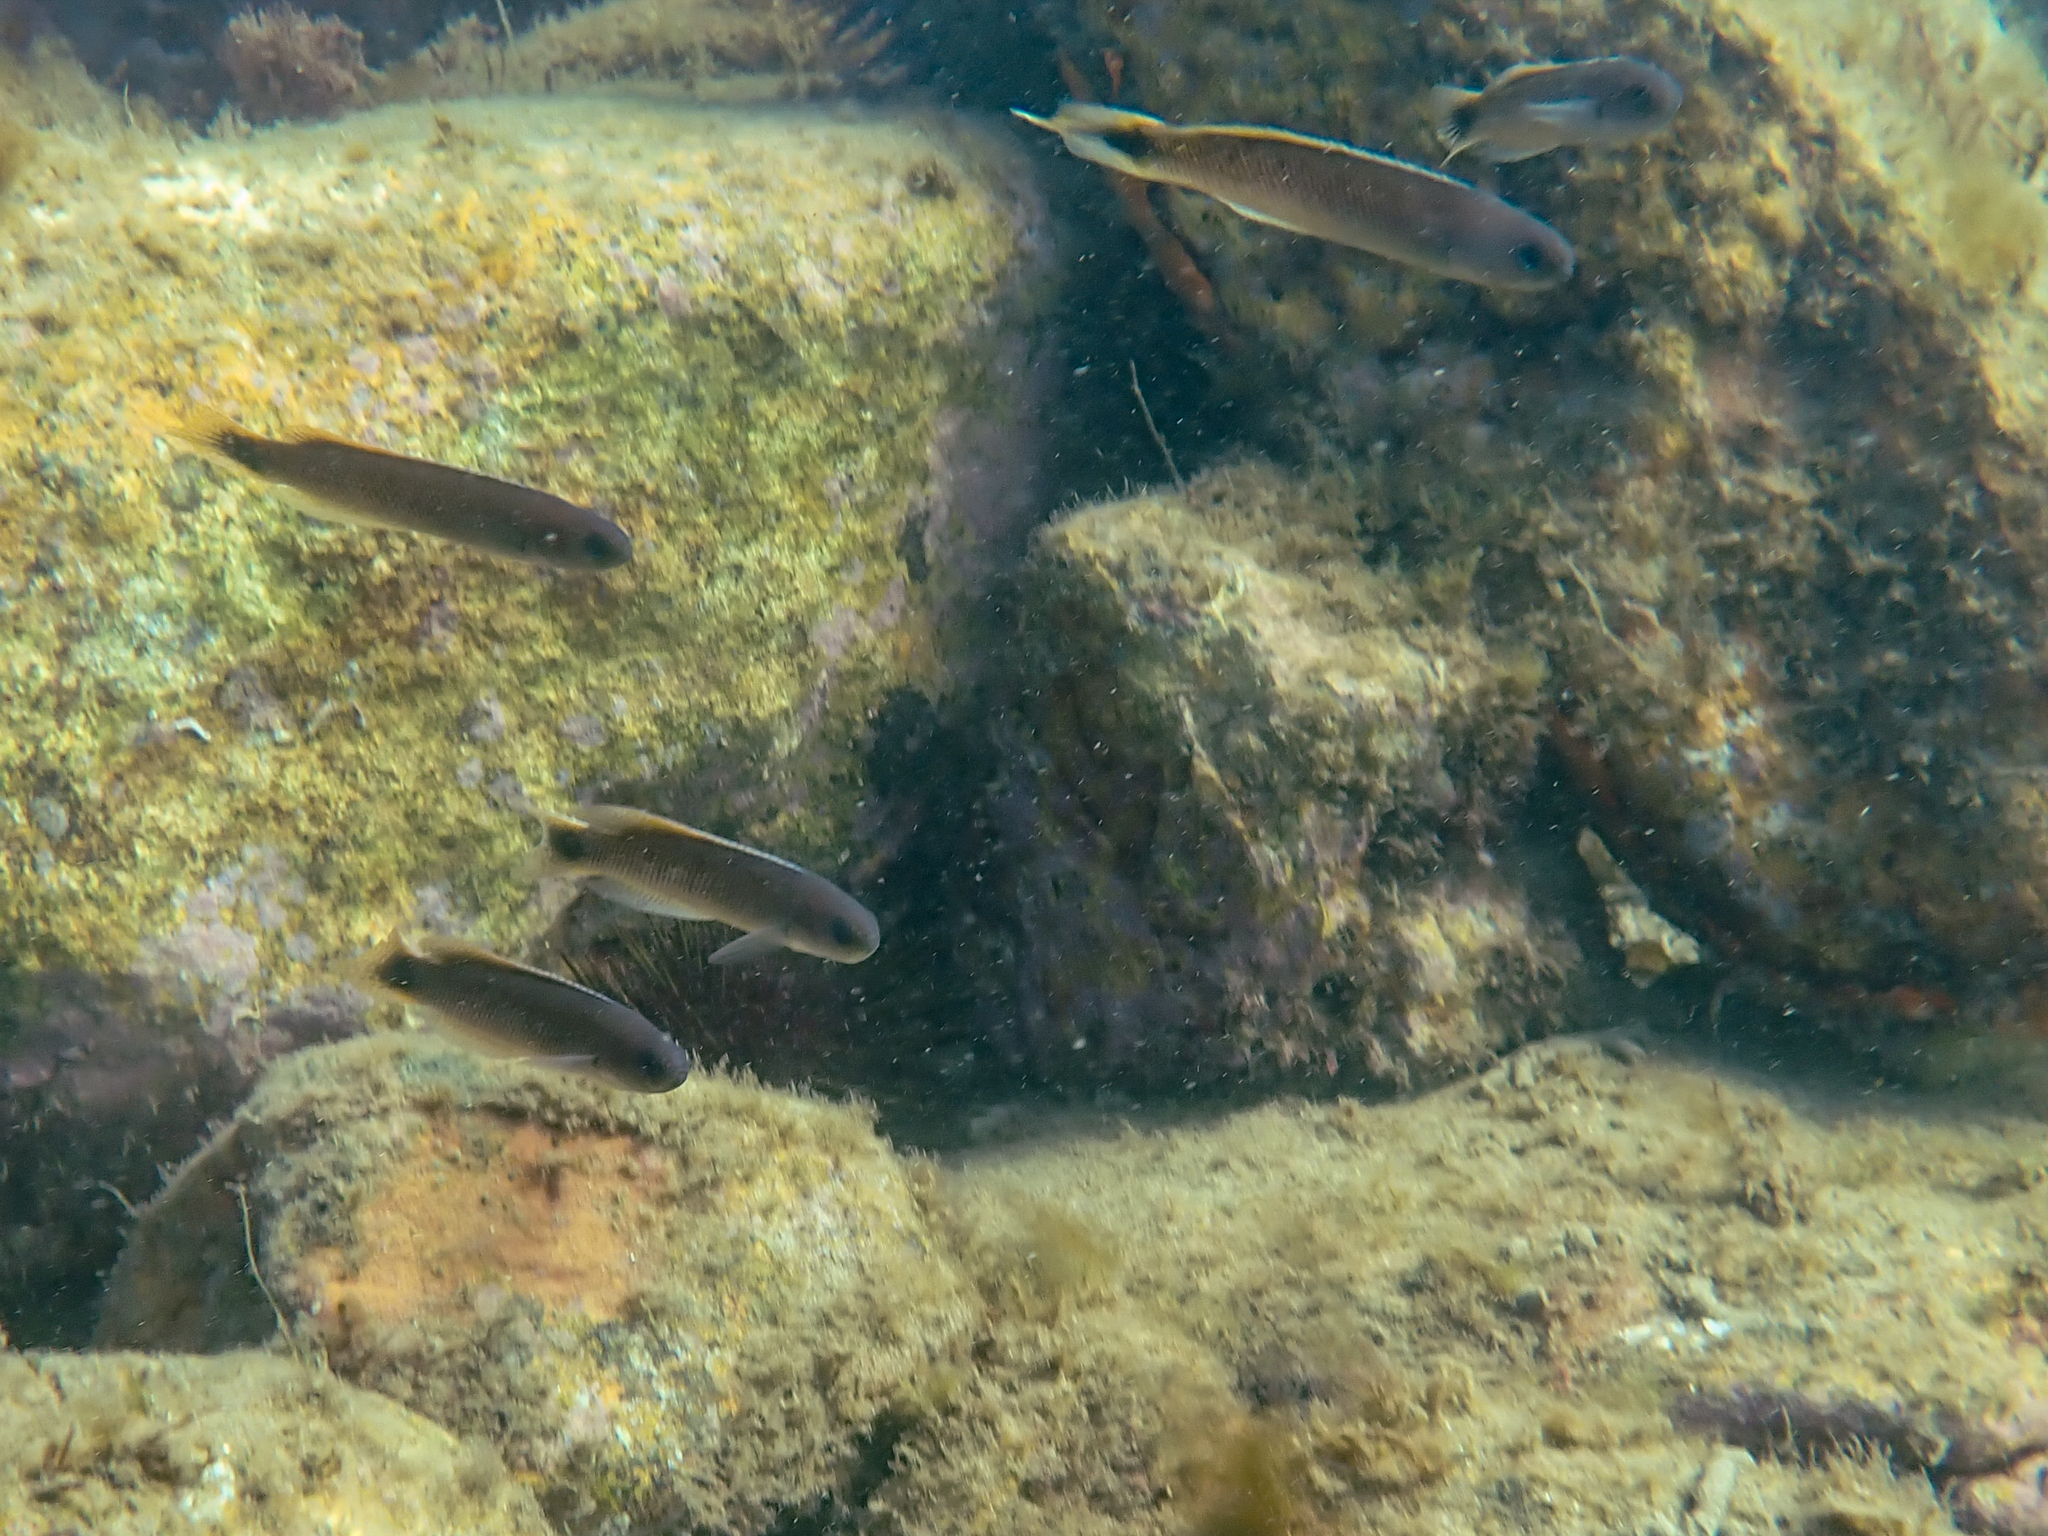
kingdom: Animalia
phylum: Chordata
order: Perciformes
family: Plesiopidae
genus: Trachinops
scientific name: Trachinops caudimaculatus
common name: Blotched-tailed trachinops
